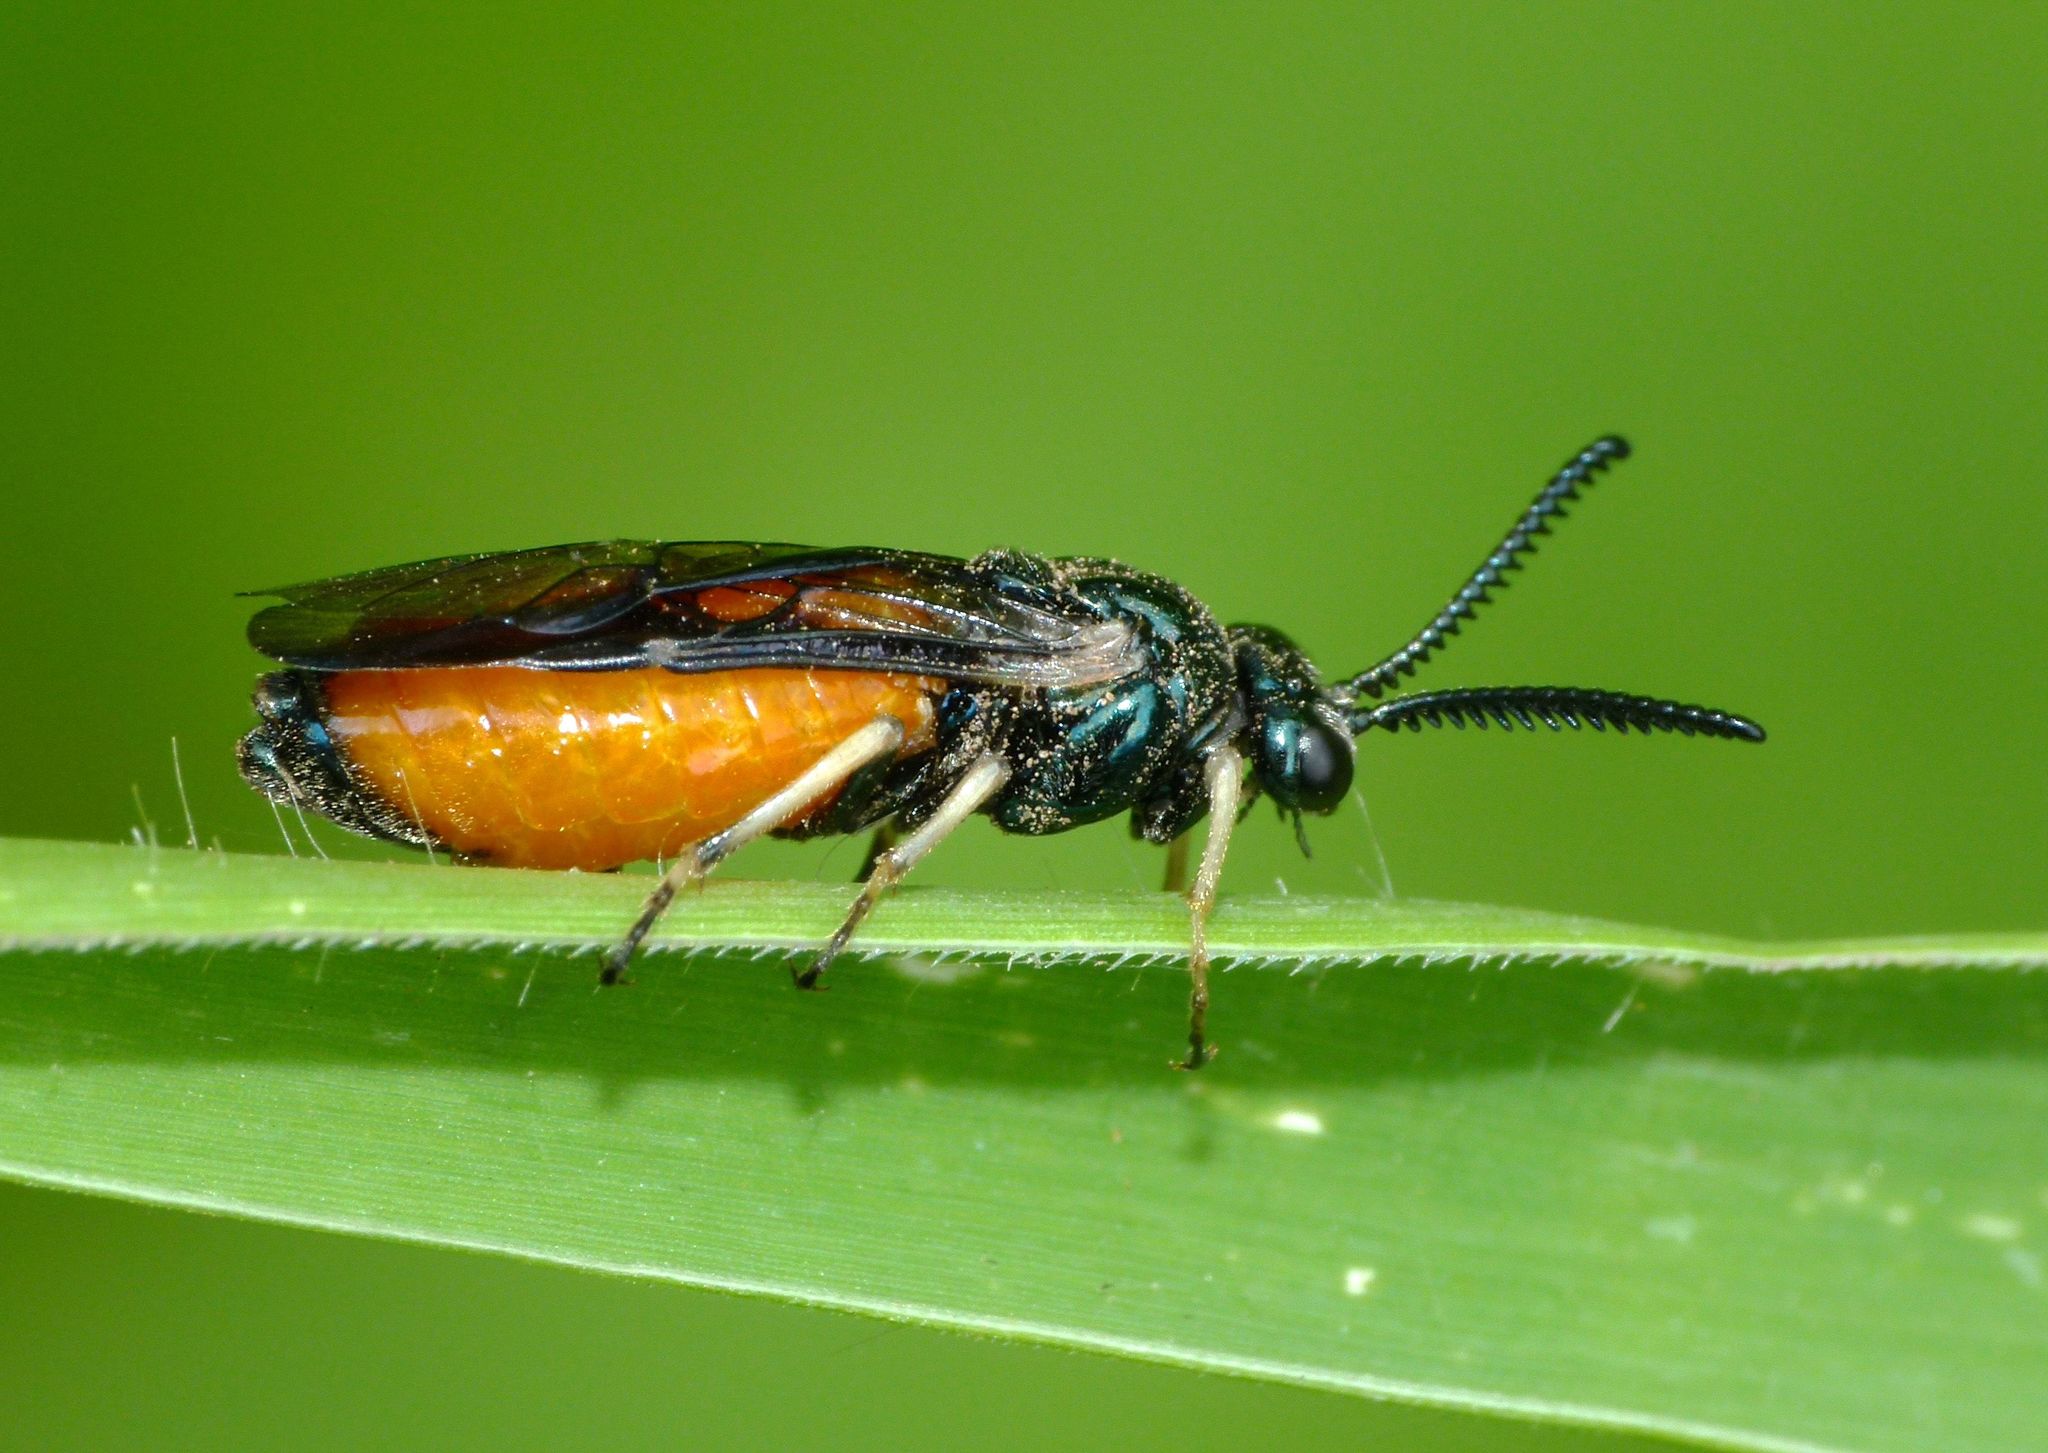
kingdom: Animalia
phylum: Arthropoda
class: Insecta
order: Hymenoptera
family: Pergidae
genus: Lophyrotoma
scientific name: Lophyrotoma analis
